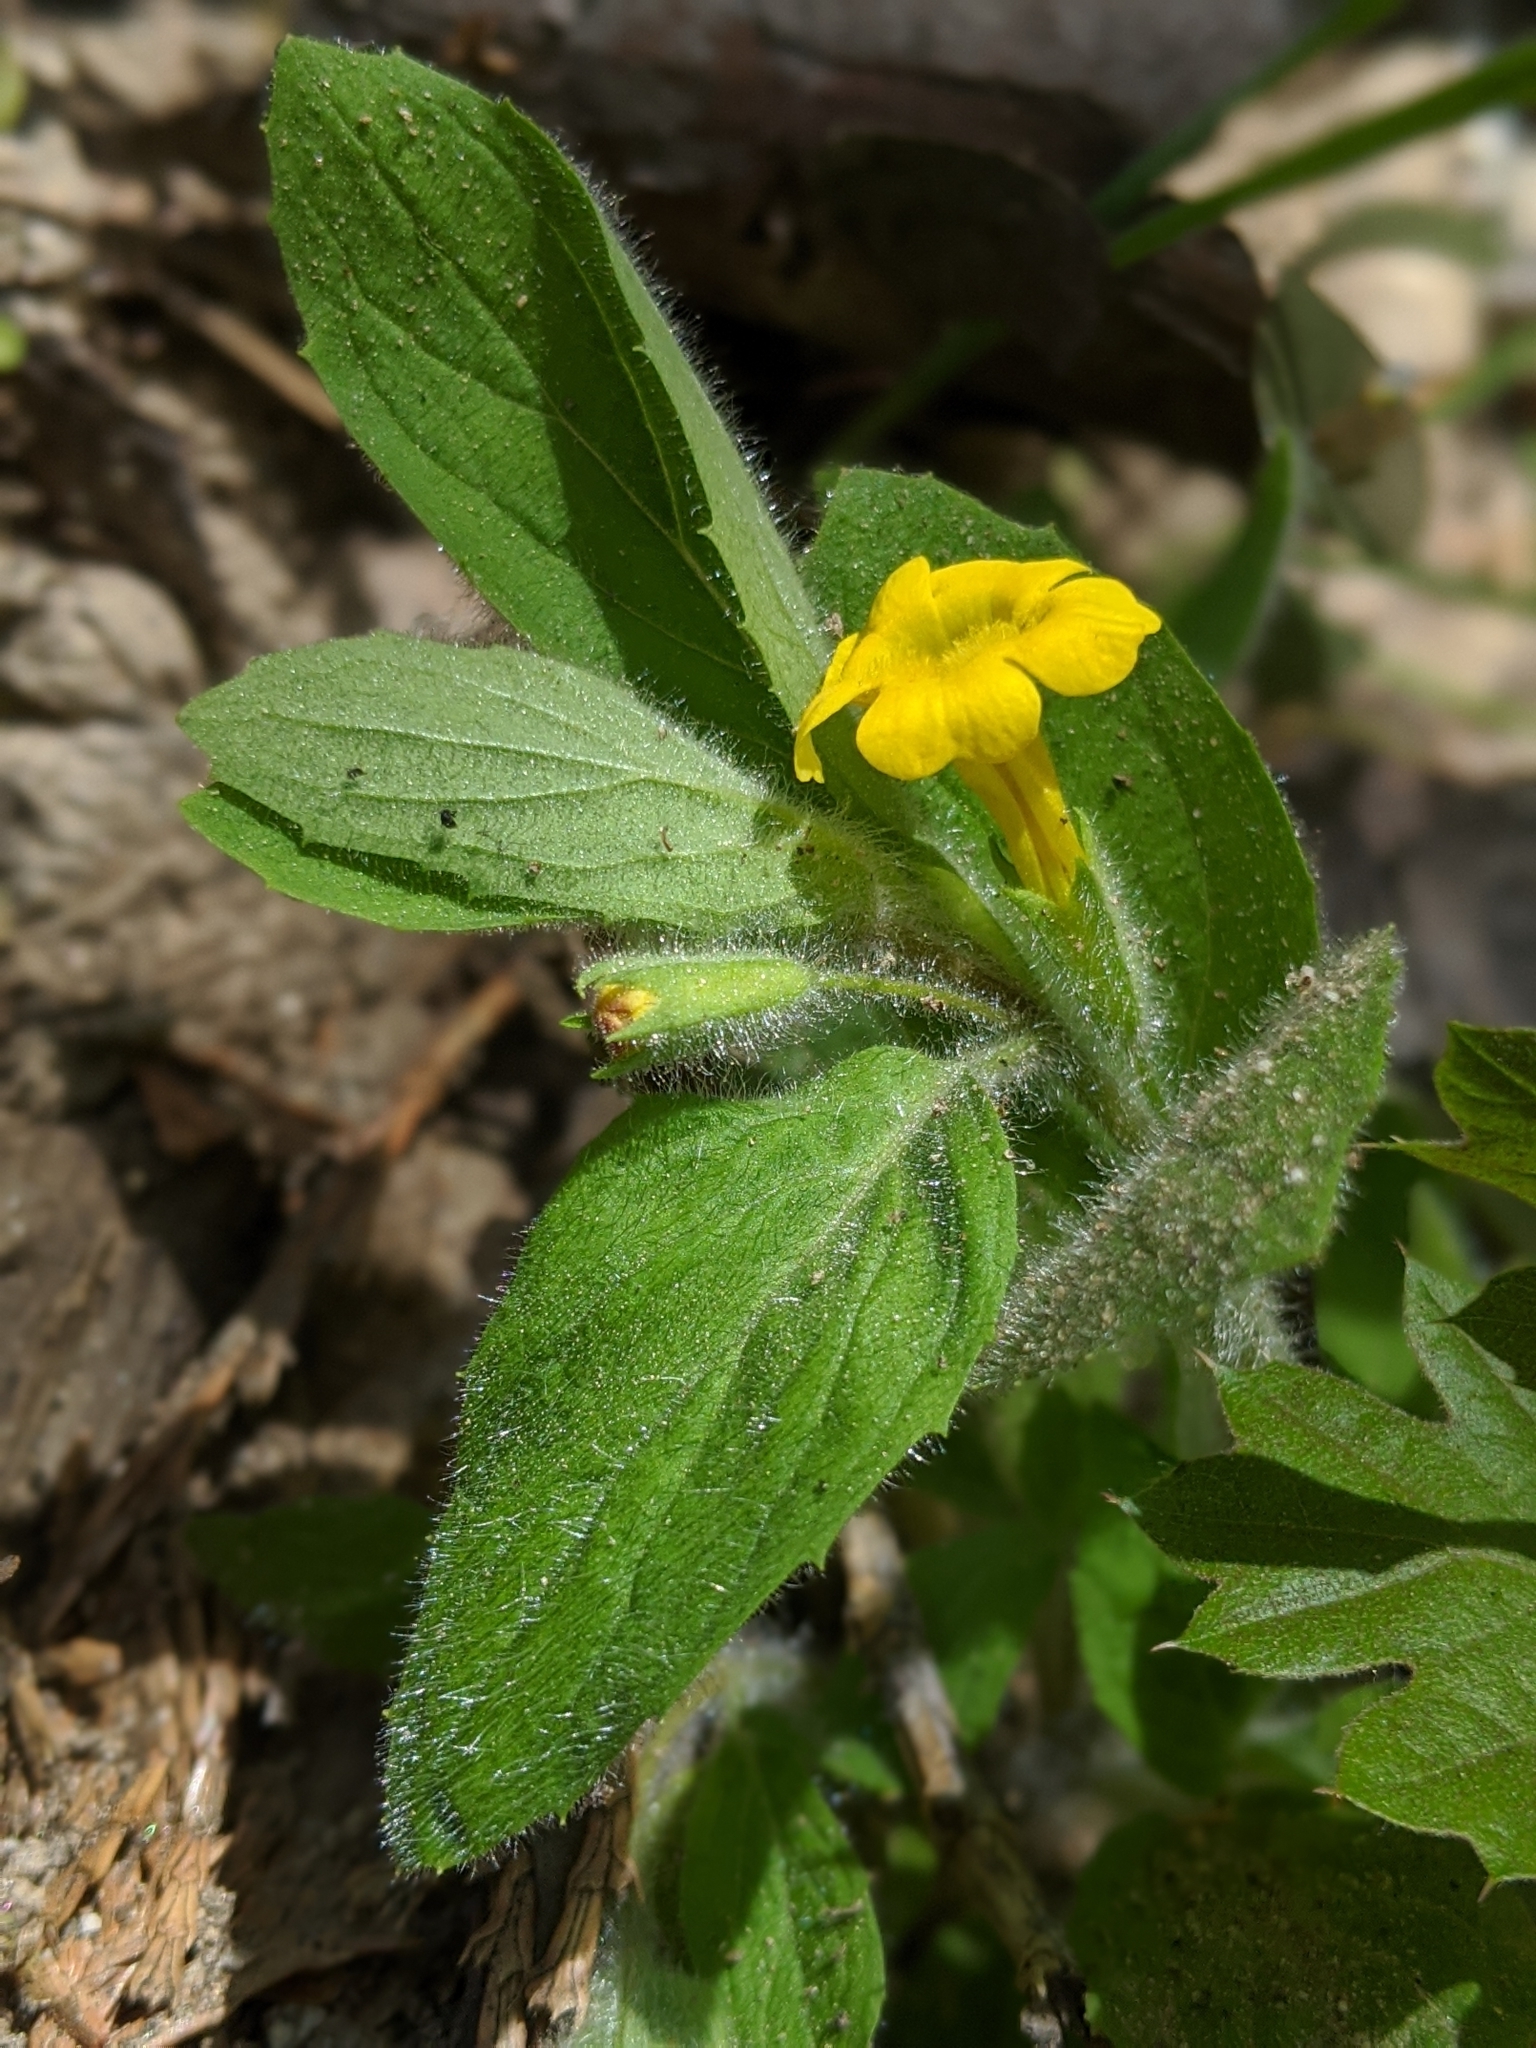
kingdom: Plantae
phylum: Tracheophyta
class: Magnoliopsida
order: Lamiales
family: Phrymaceae
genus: Erythranthe
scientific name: Erythranthe moschata
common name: Muskflower
